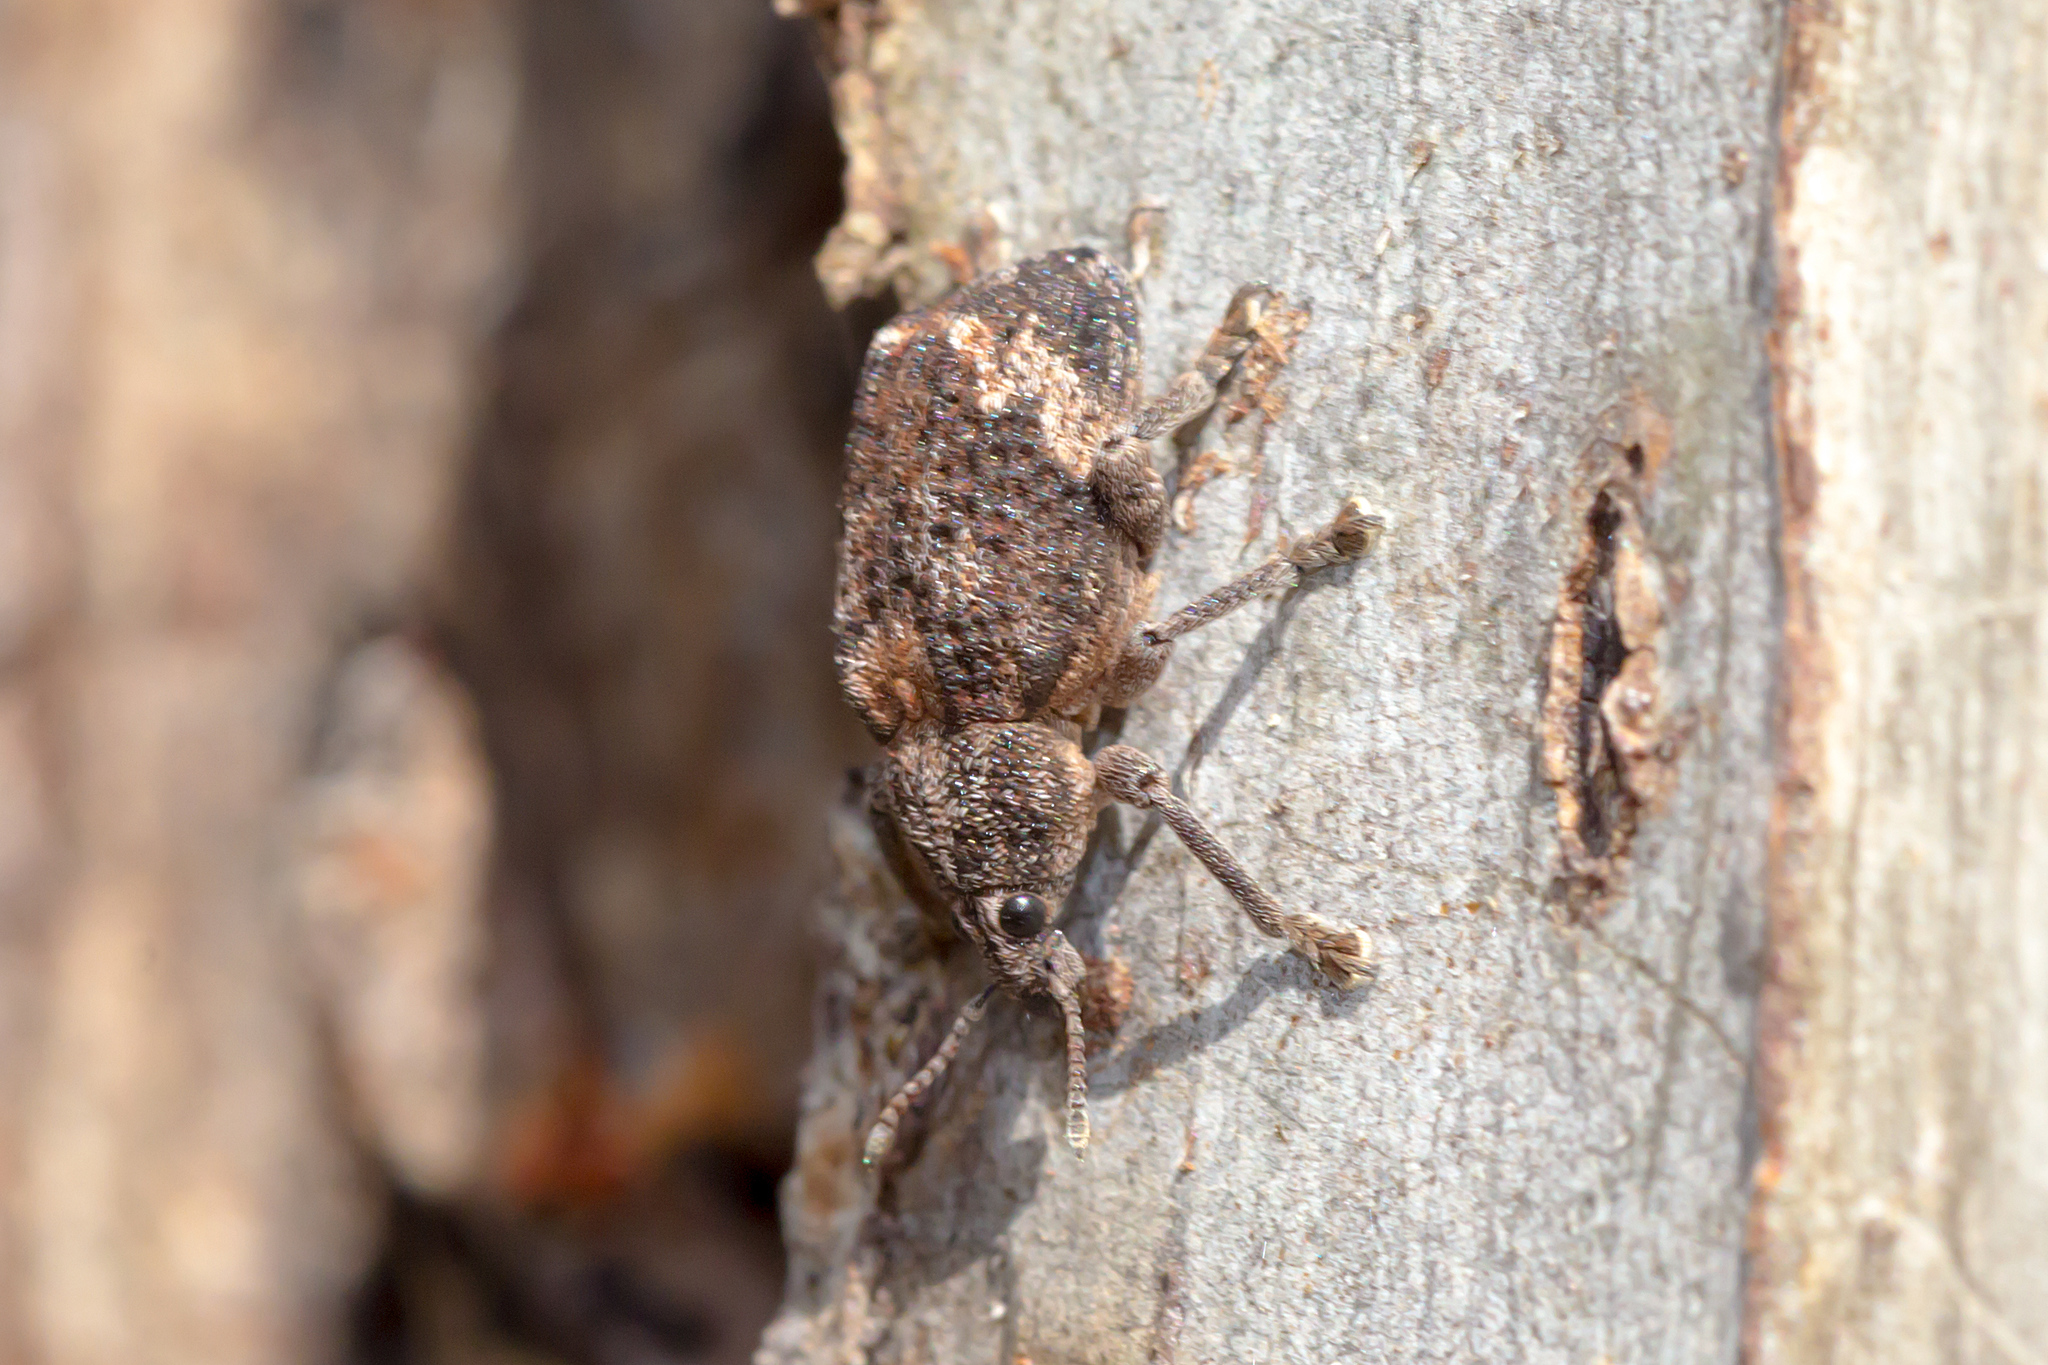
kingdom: Animalia
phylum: Arthropoda
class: Insecta
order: Coleoptera
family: Curculionidae
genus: Oxyops
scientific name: Oxyops fasciatus
